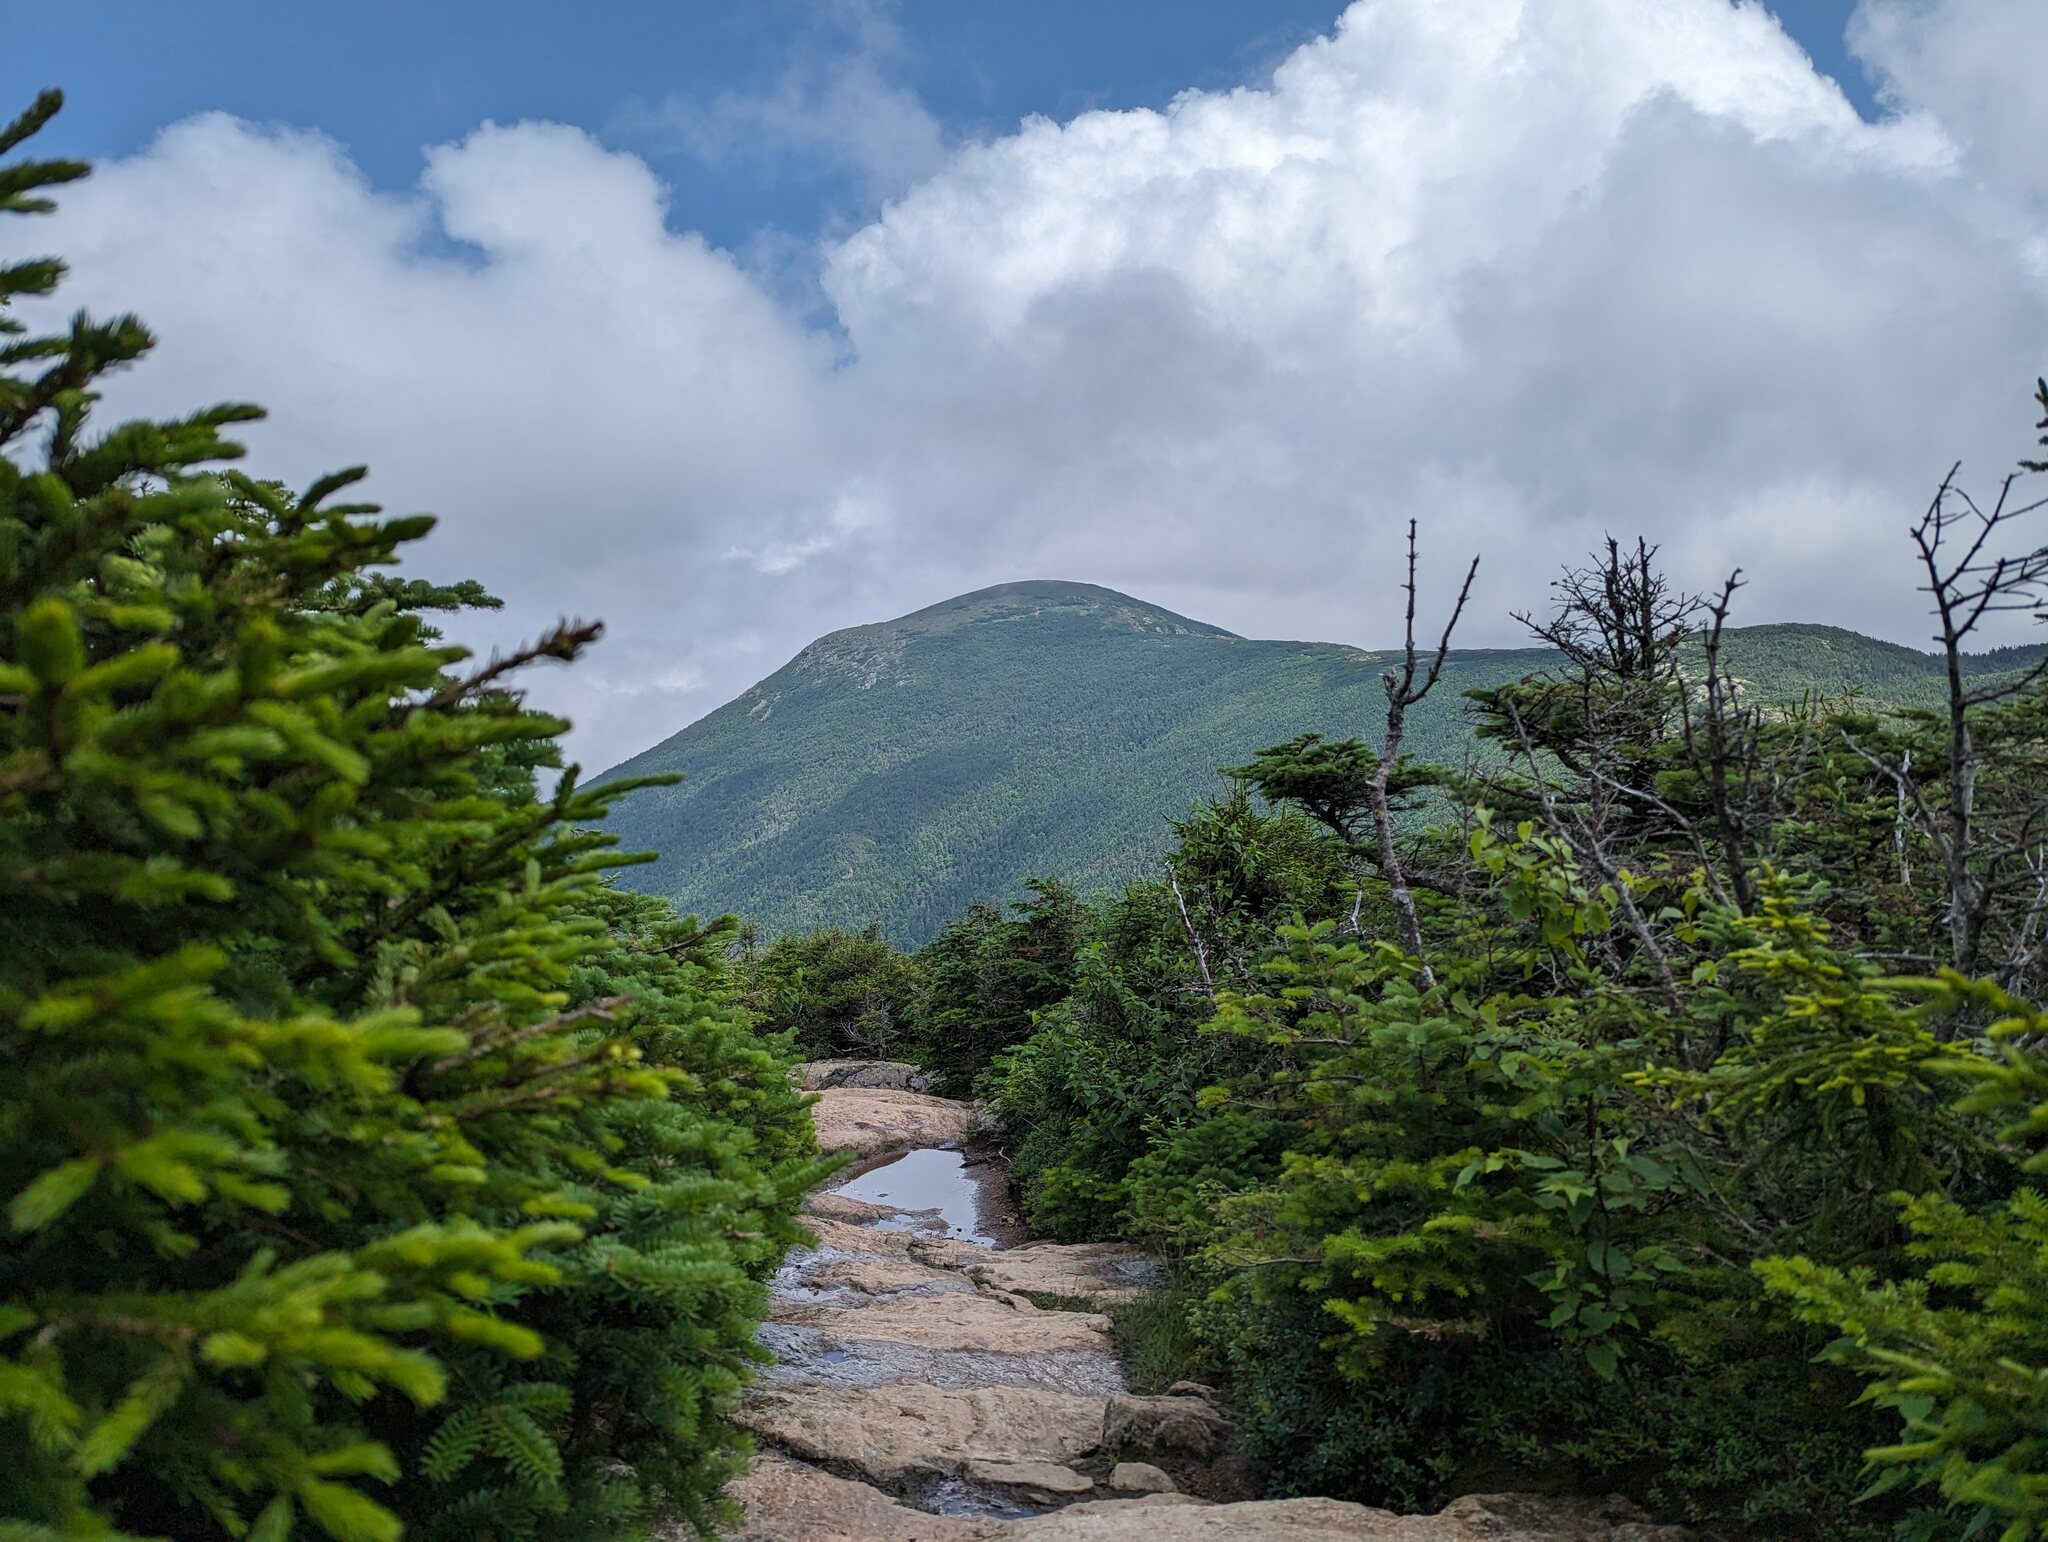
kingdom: Plantae
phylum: Tracheophyta
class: Pinopsida
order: Pinales
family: Pinaceae
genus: Abies
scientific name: Abies balsamea
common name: Balsam fir
